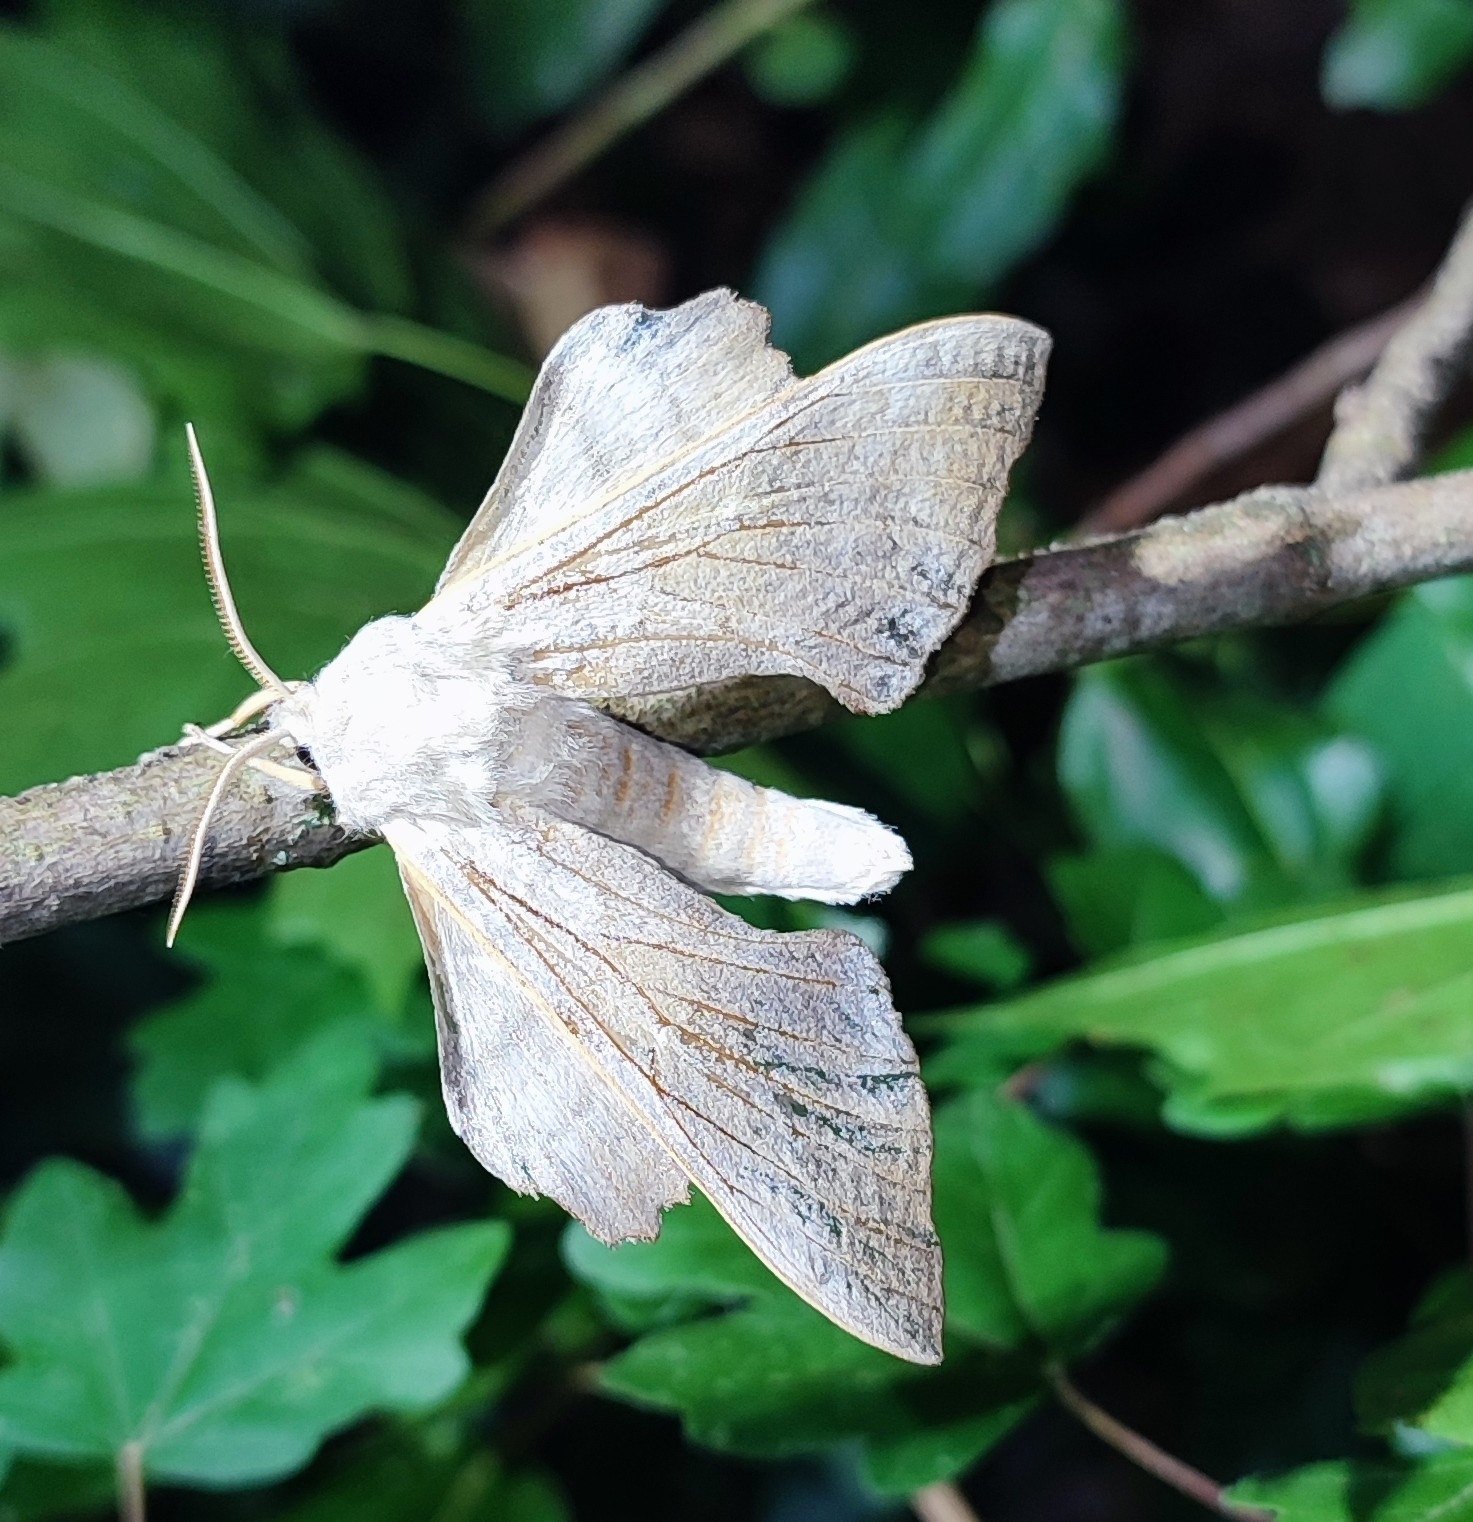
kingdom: Animalia
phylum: Arthropoda
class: Insecta
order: Lepidoptera
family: Sphingidae
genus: Laothoe
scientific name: Laothoe populi
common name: Poplar hawk-moth
